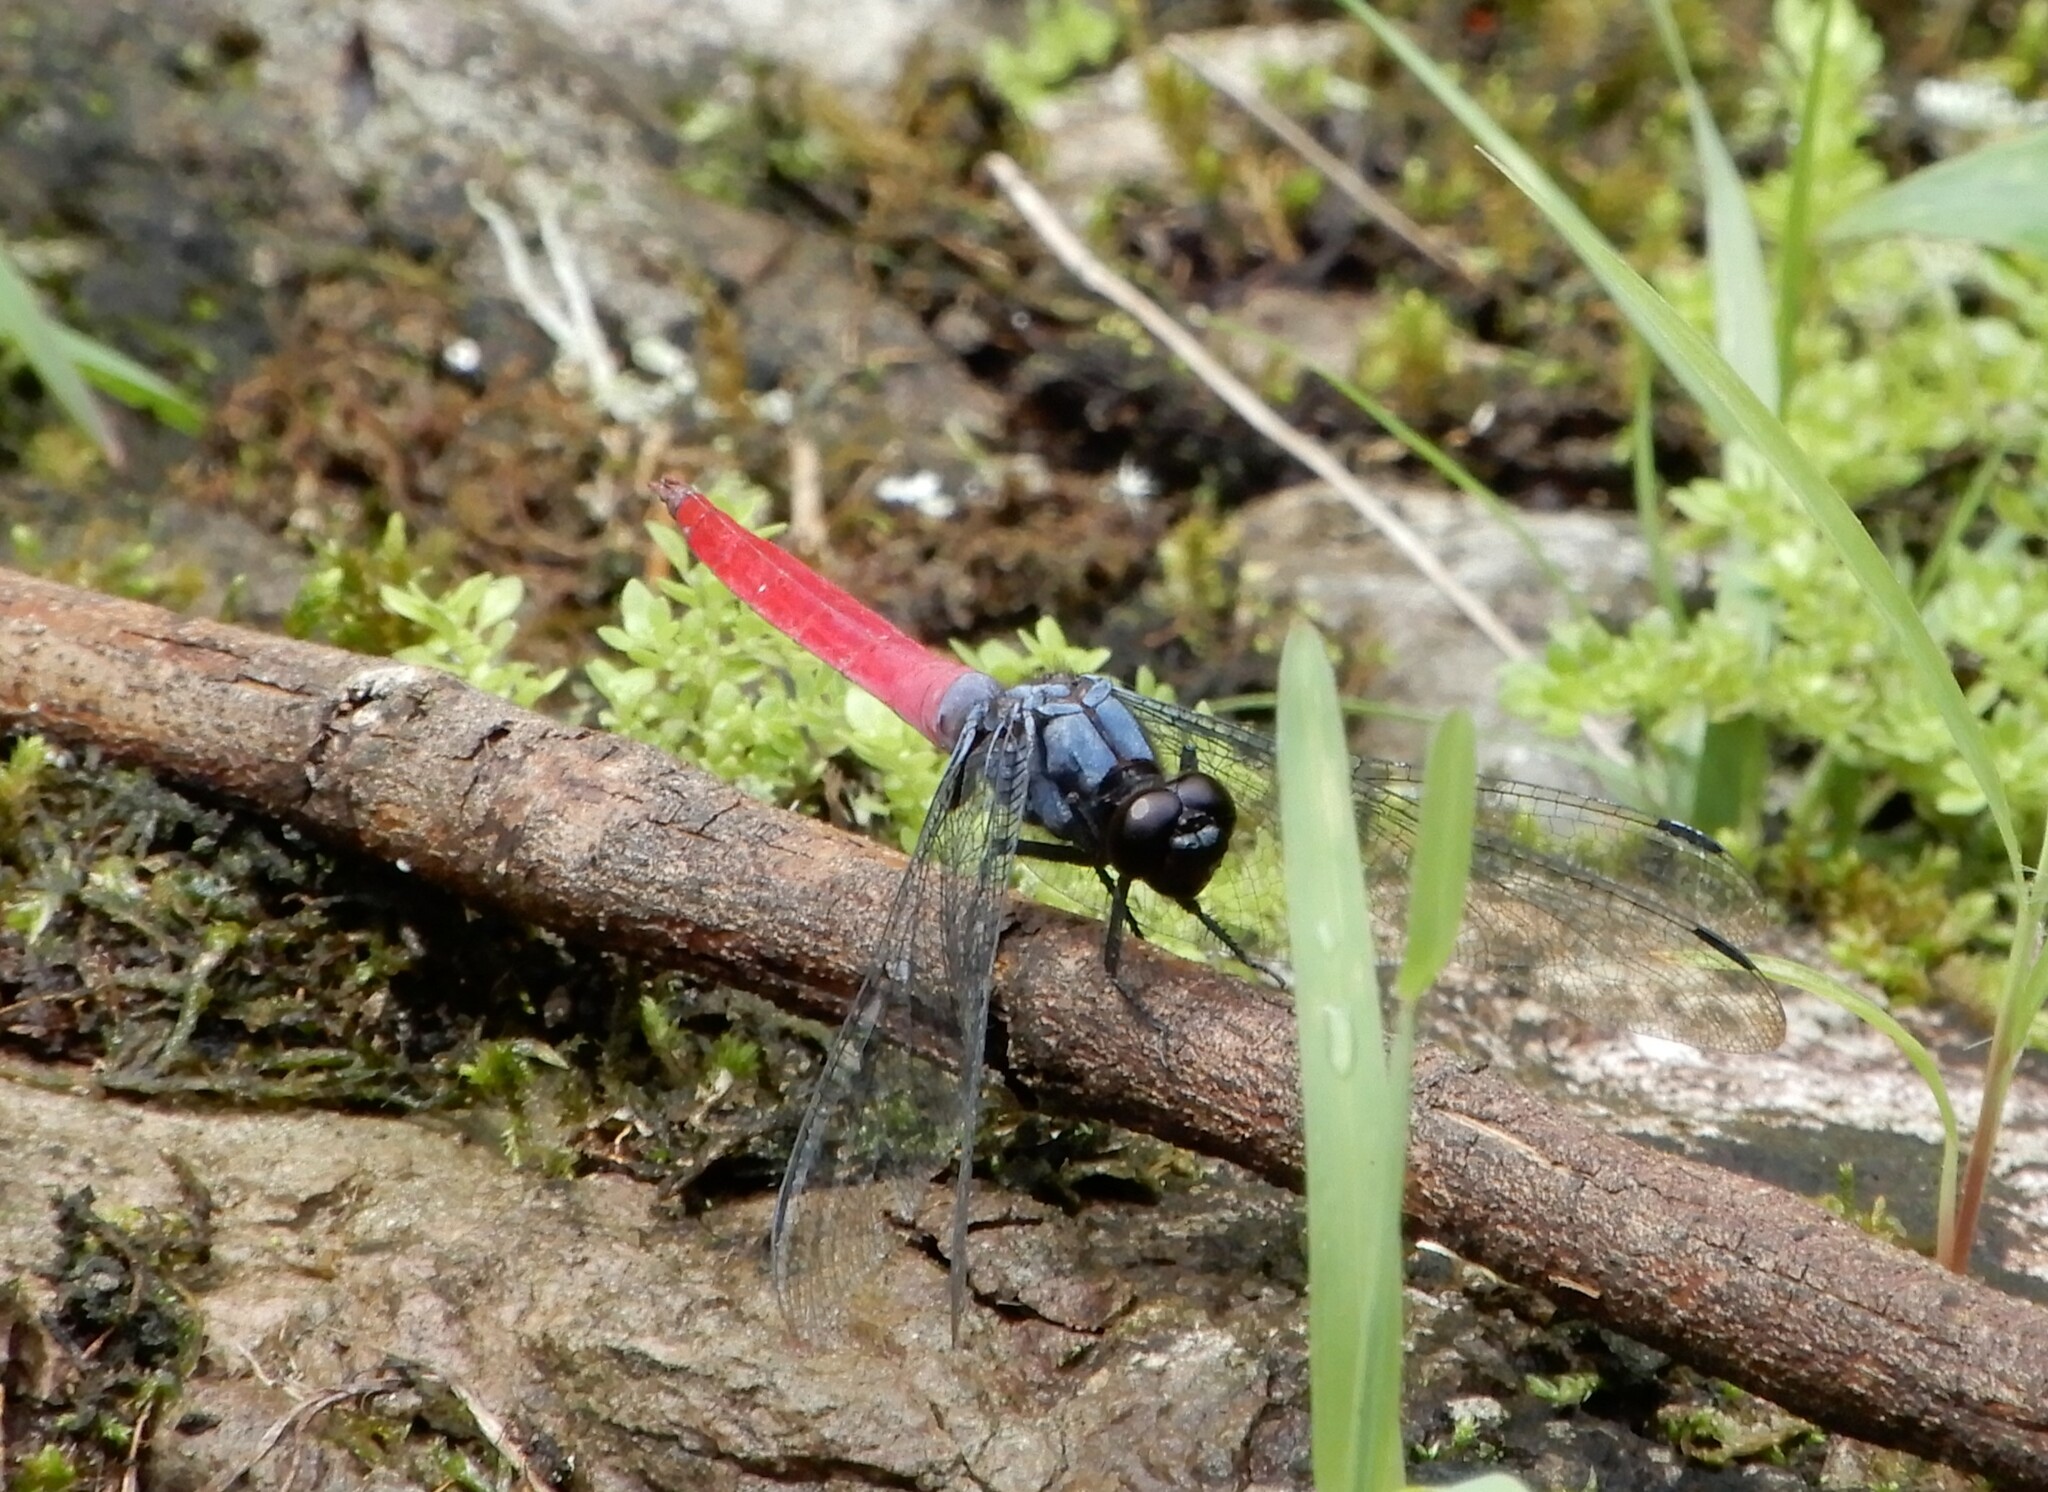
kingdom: Animalia
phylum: Arthropoda
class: Insecta
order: Odonata
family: Libellulidae
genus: Orthetrum
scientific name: Orthetrum pruinosum
